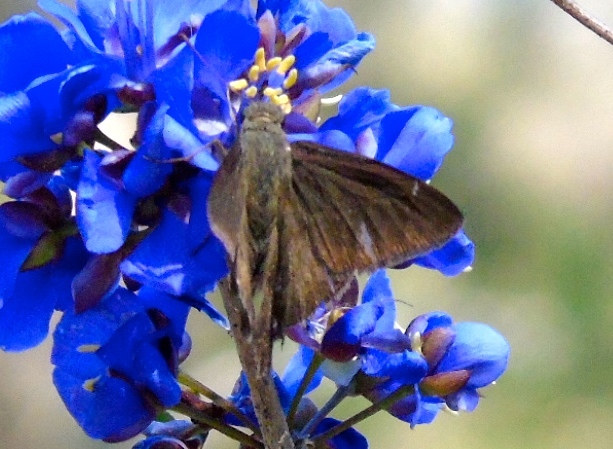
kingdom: Animalia
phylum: Arthropoda
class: Insecta
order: Lepidoptera
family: Hesperiidae
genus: Urbanus
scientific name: Urbanus simplicius
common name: Plain longtail
